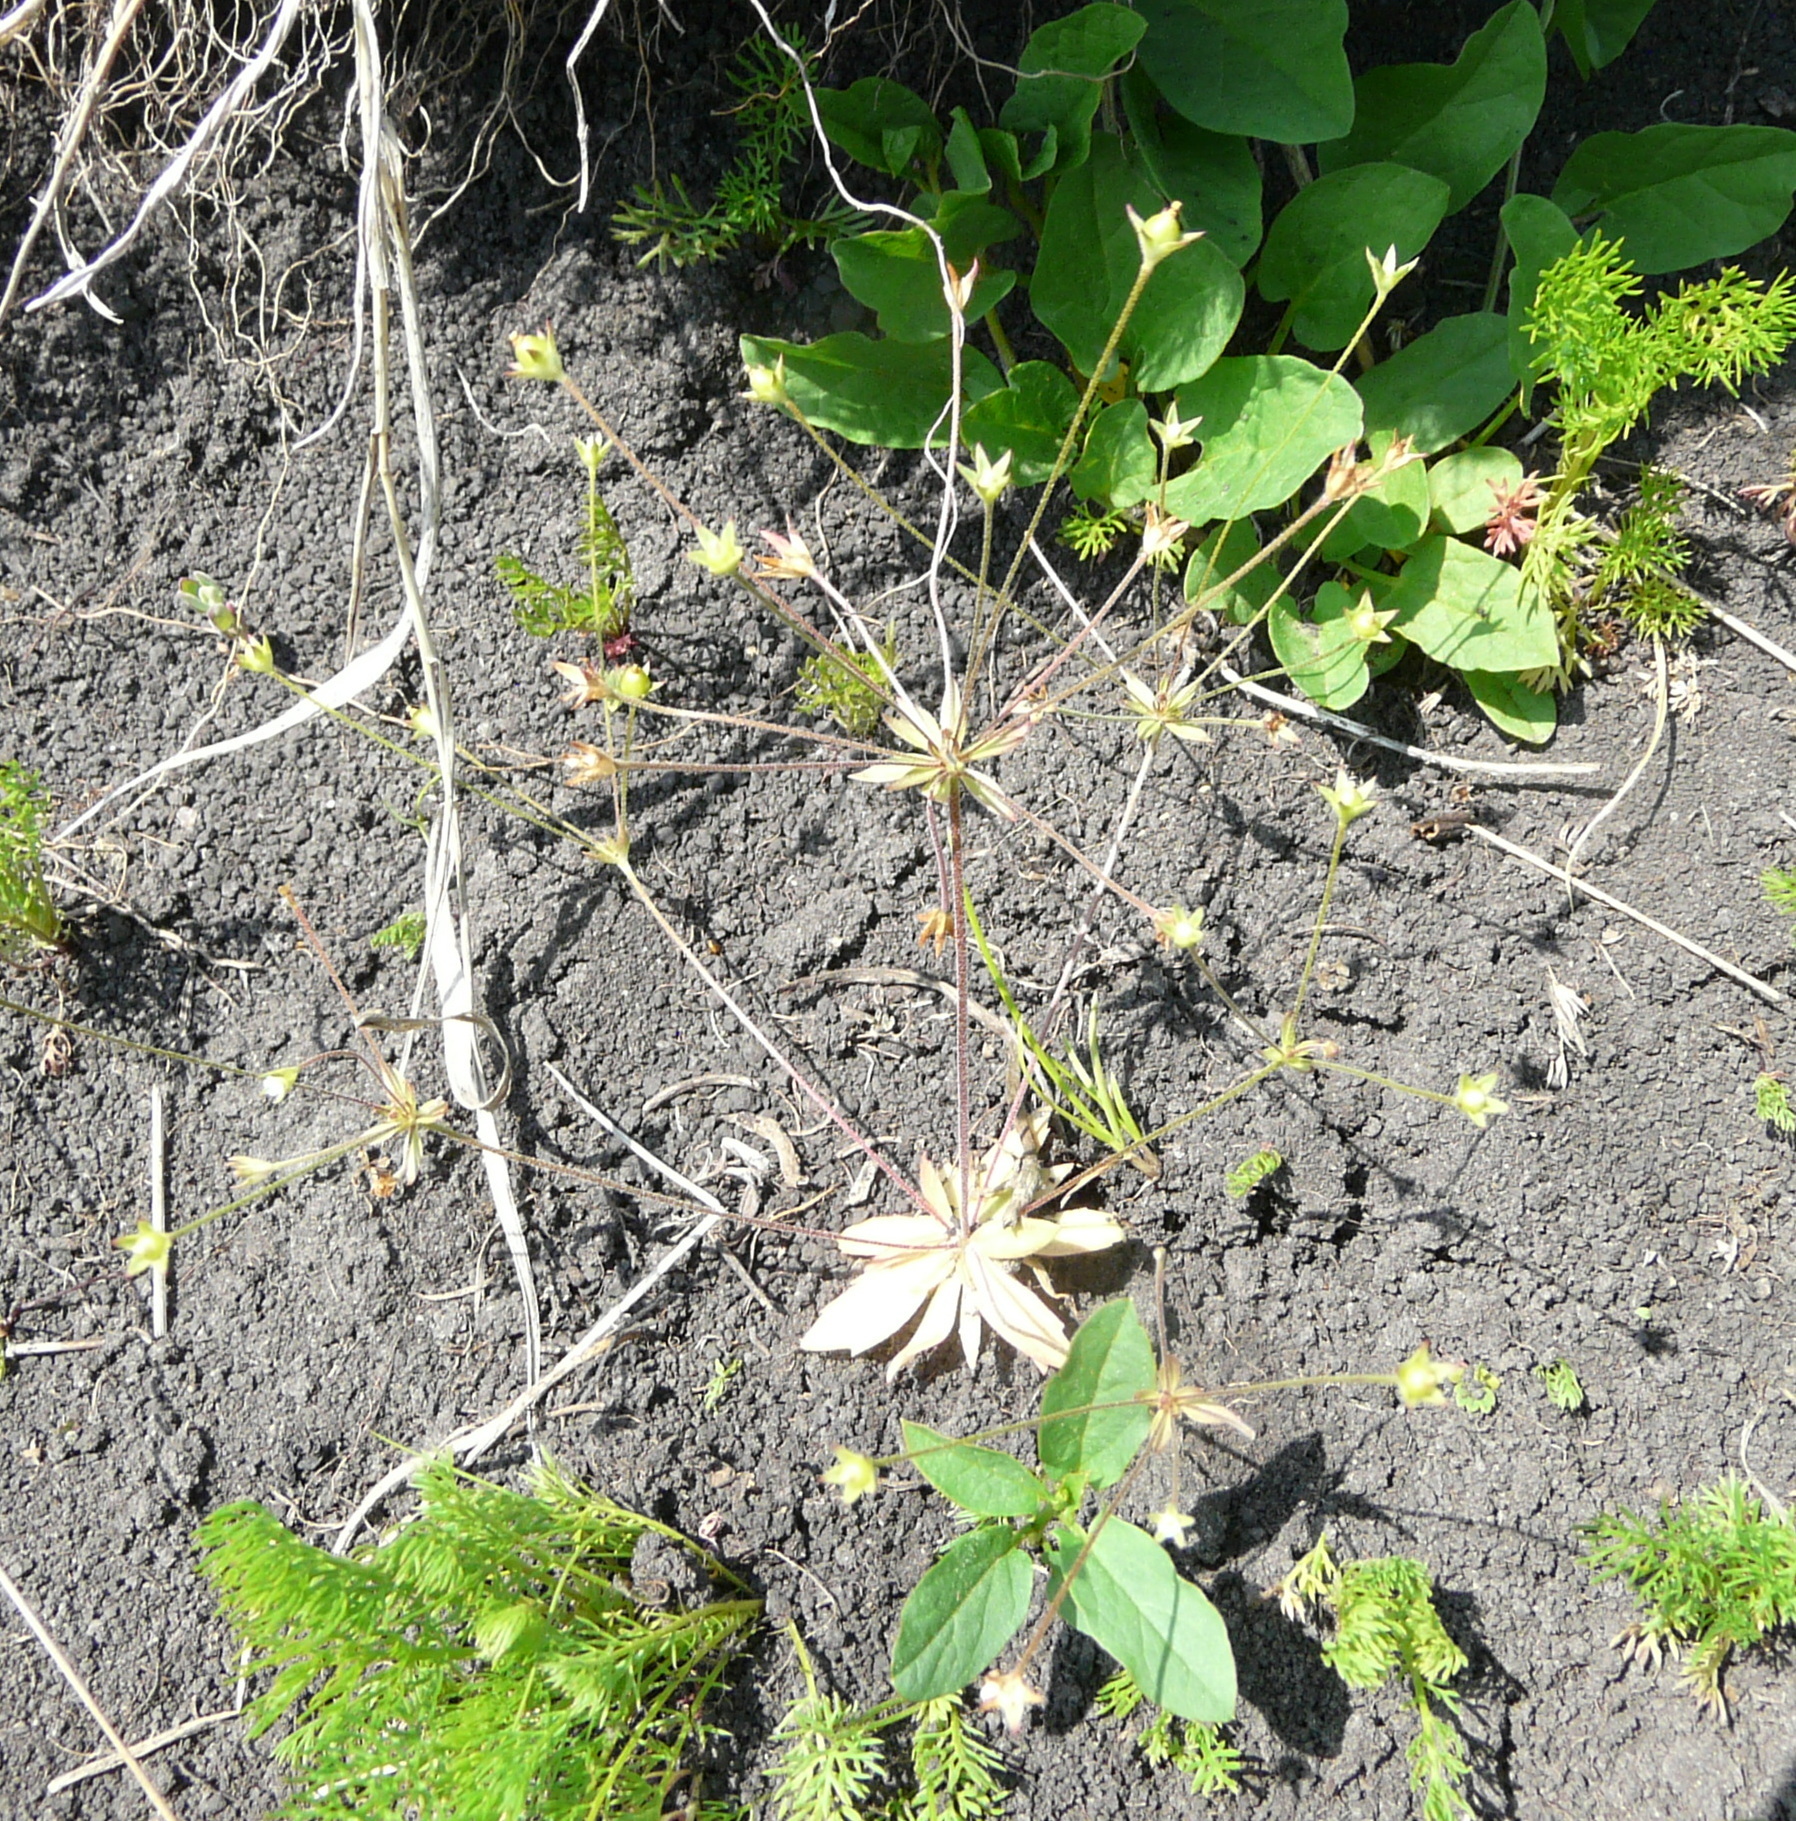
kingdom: Plantae
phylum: Tracheophyta
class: Magnoliopsida
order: Ericales
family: Primulaceae
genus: Androsace
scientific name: Androsace elongata
